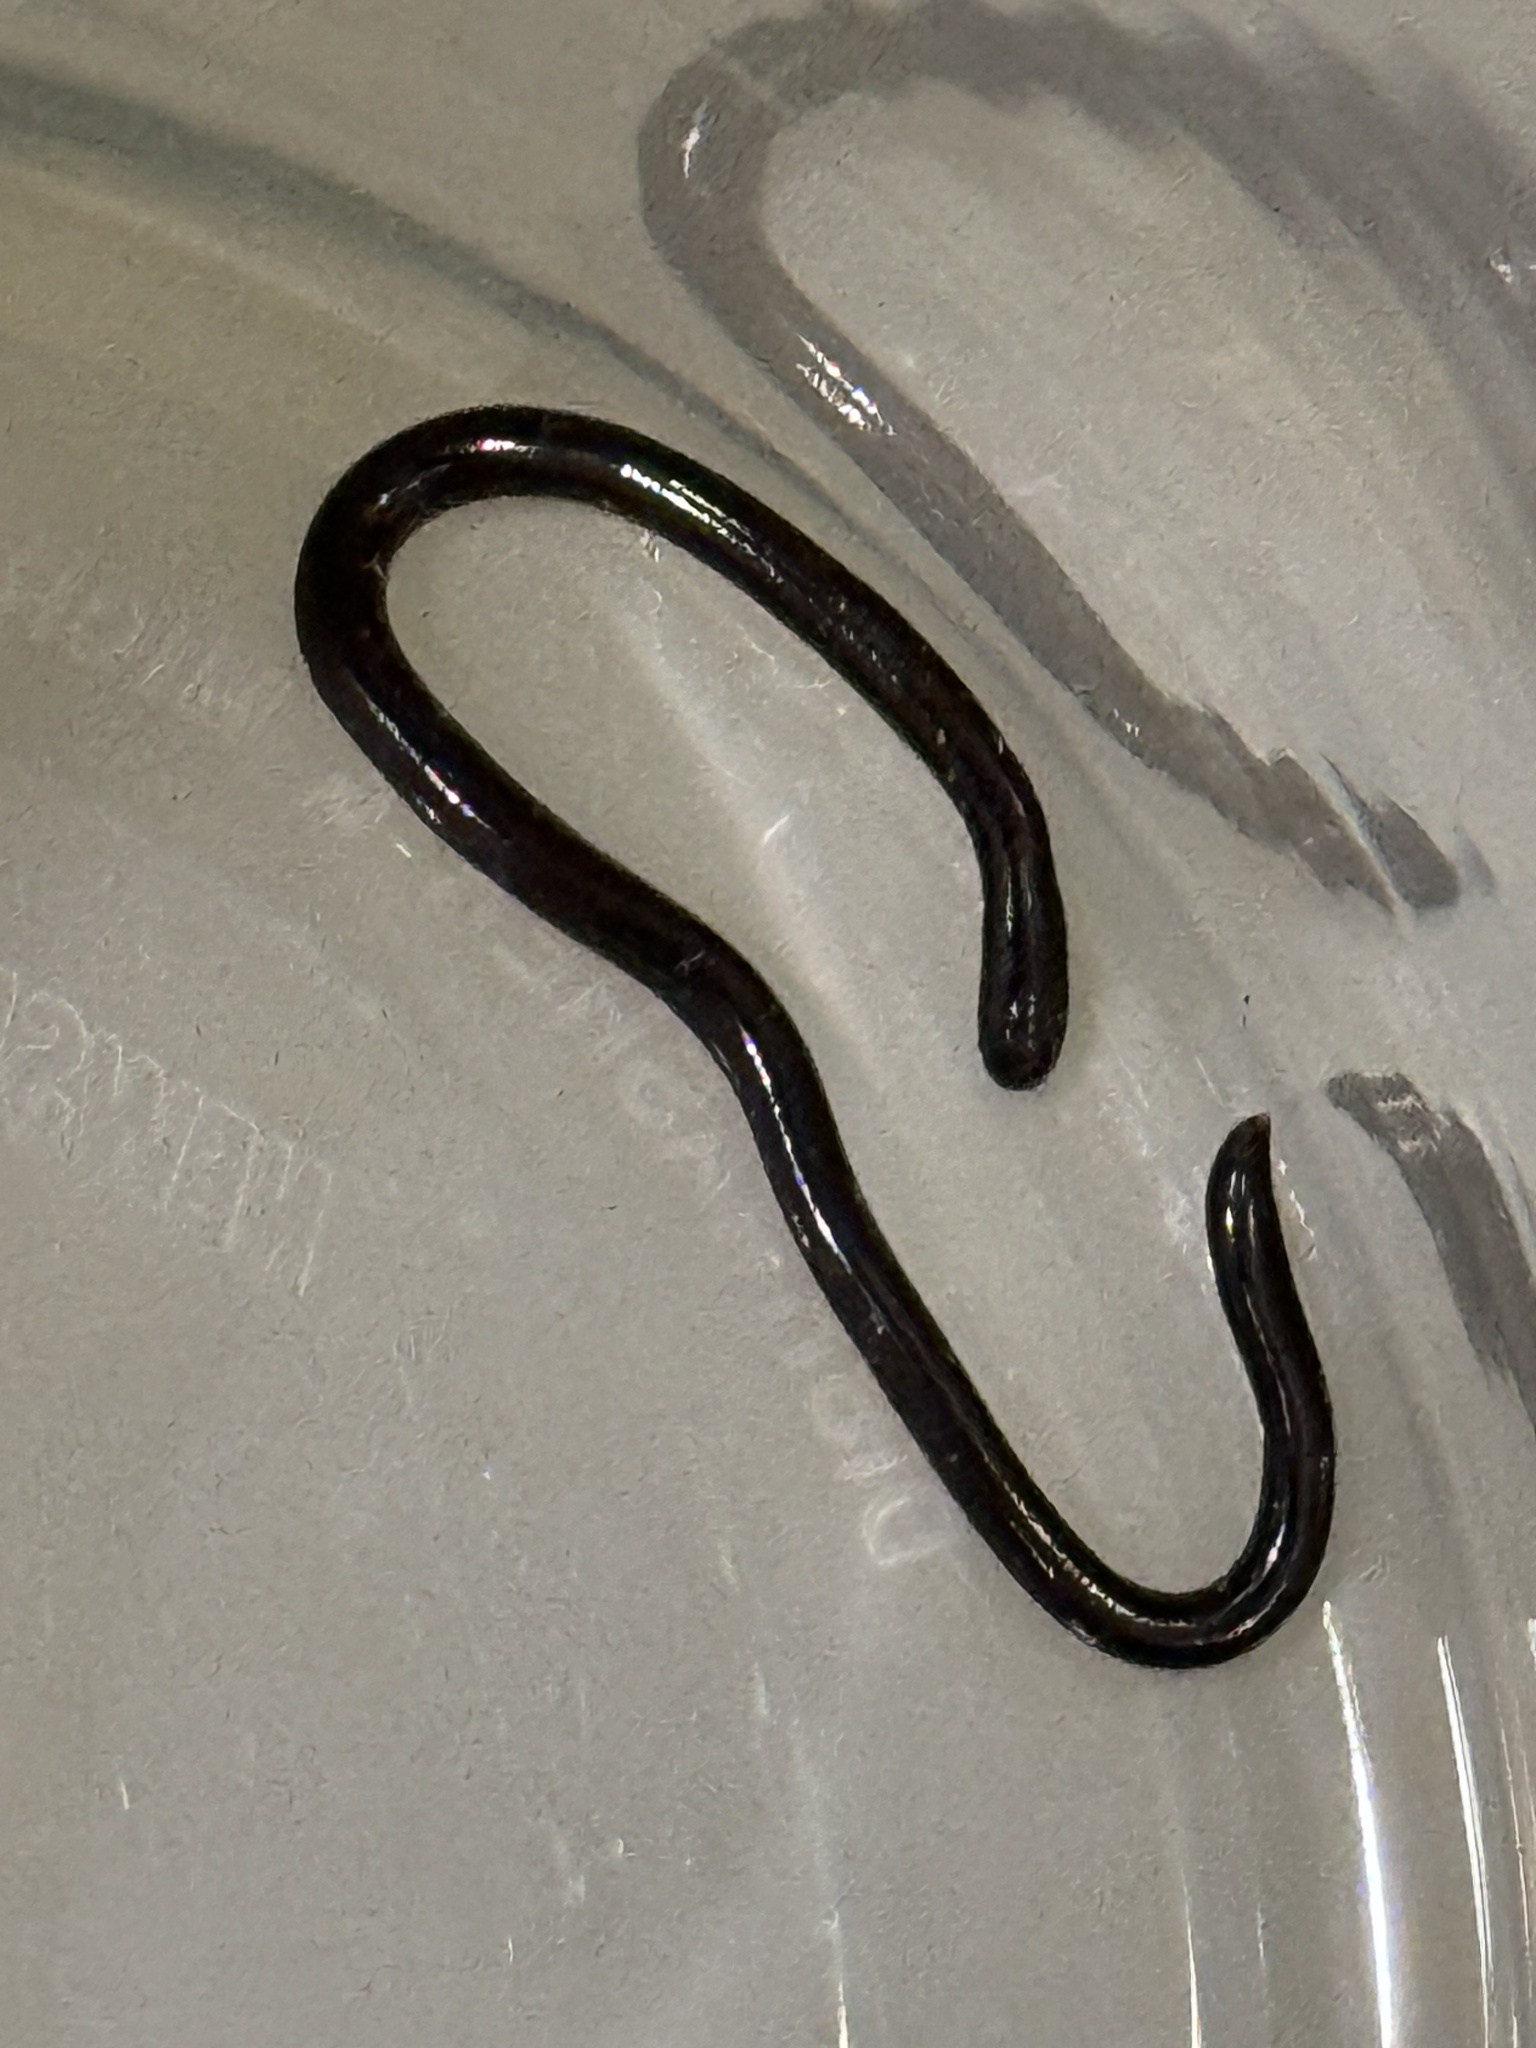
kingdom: Animalia
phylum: Chordata
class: Squamata
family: Typhlopidae
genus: Indotyphlops
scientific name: Indotyphlops braminus
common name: Brahminy blindsnake
